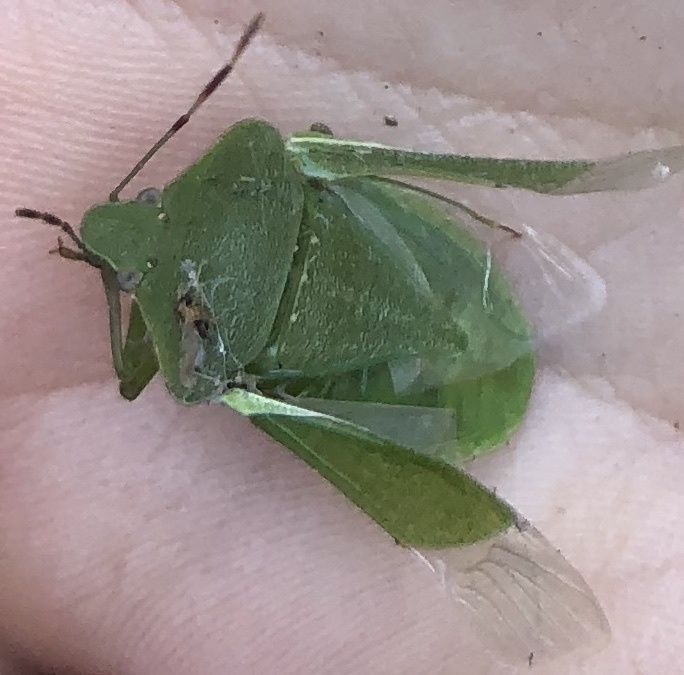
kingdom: Animalia
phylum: Arthropoda
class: Insecta
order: Hemiptera
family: Pentatomidae
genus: Nezara
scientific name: Nezara viridula
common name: Southern green stink bug
